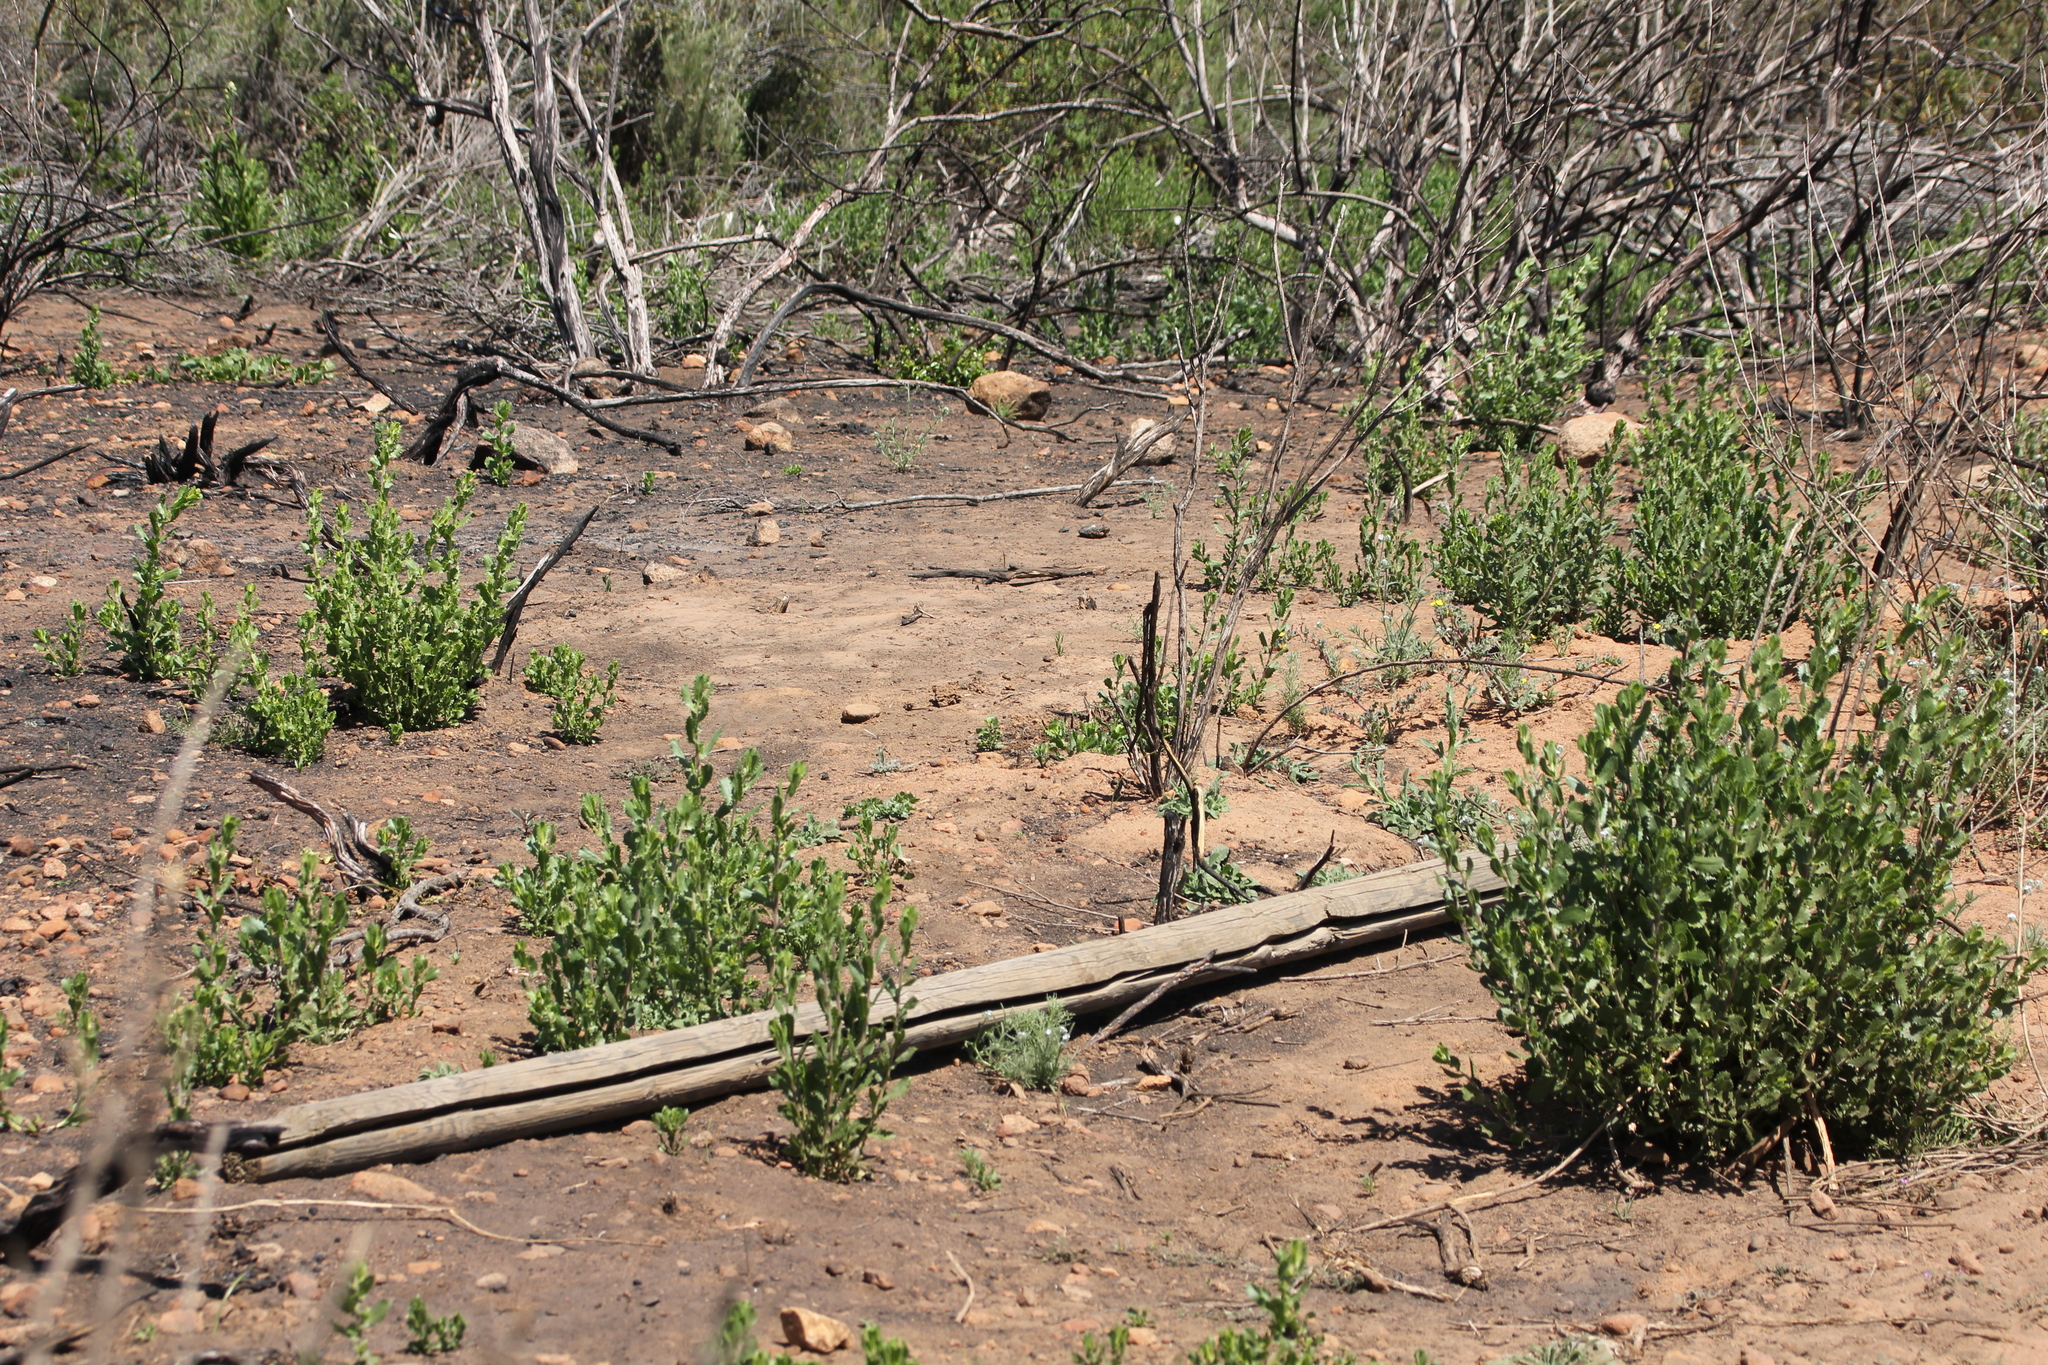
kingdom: Plantae
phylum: Tracheophyta
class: Magnoliopsida
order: Asterales
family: Asteraceae
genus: Hazardia
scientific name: Hazardia squarrosa
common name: Saw-tooth goldenbush
